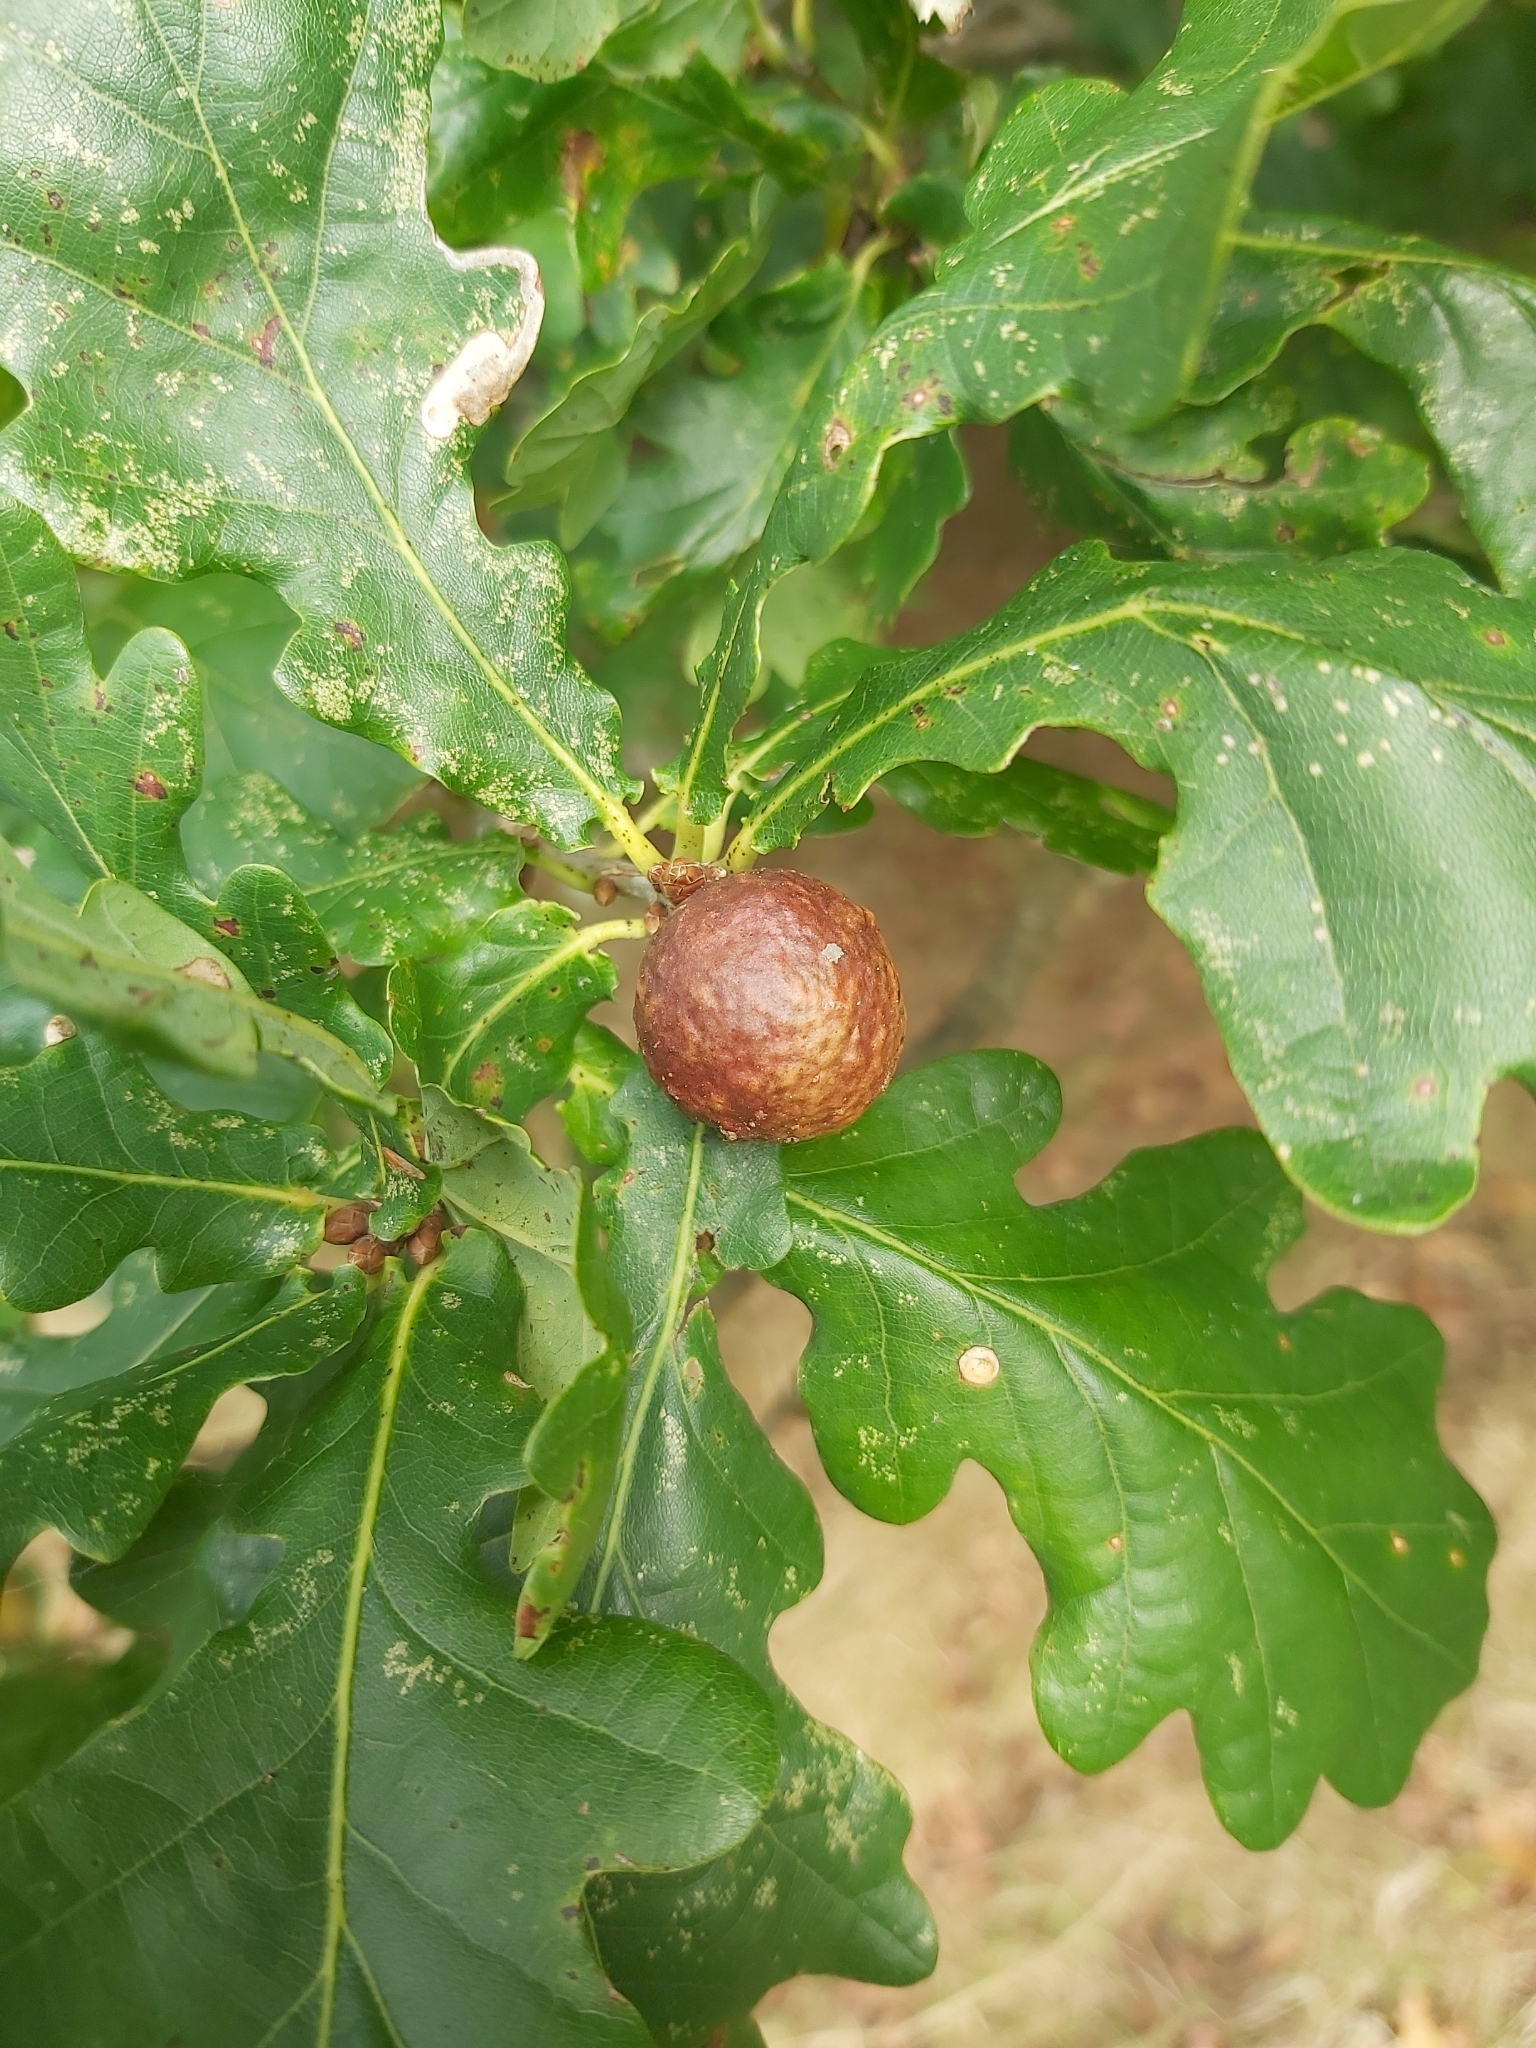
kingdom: Animalia
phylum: Arthropoda
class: Insecta
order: Hymenoptera
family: Cynipidae
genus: Andricus
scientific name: Andricus kollari
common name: Marble gall
